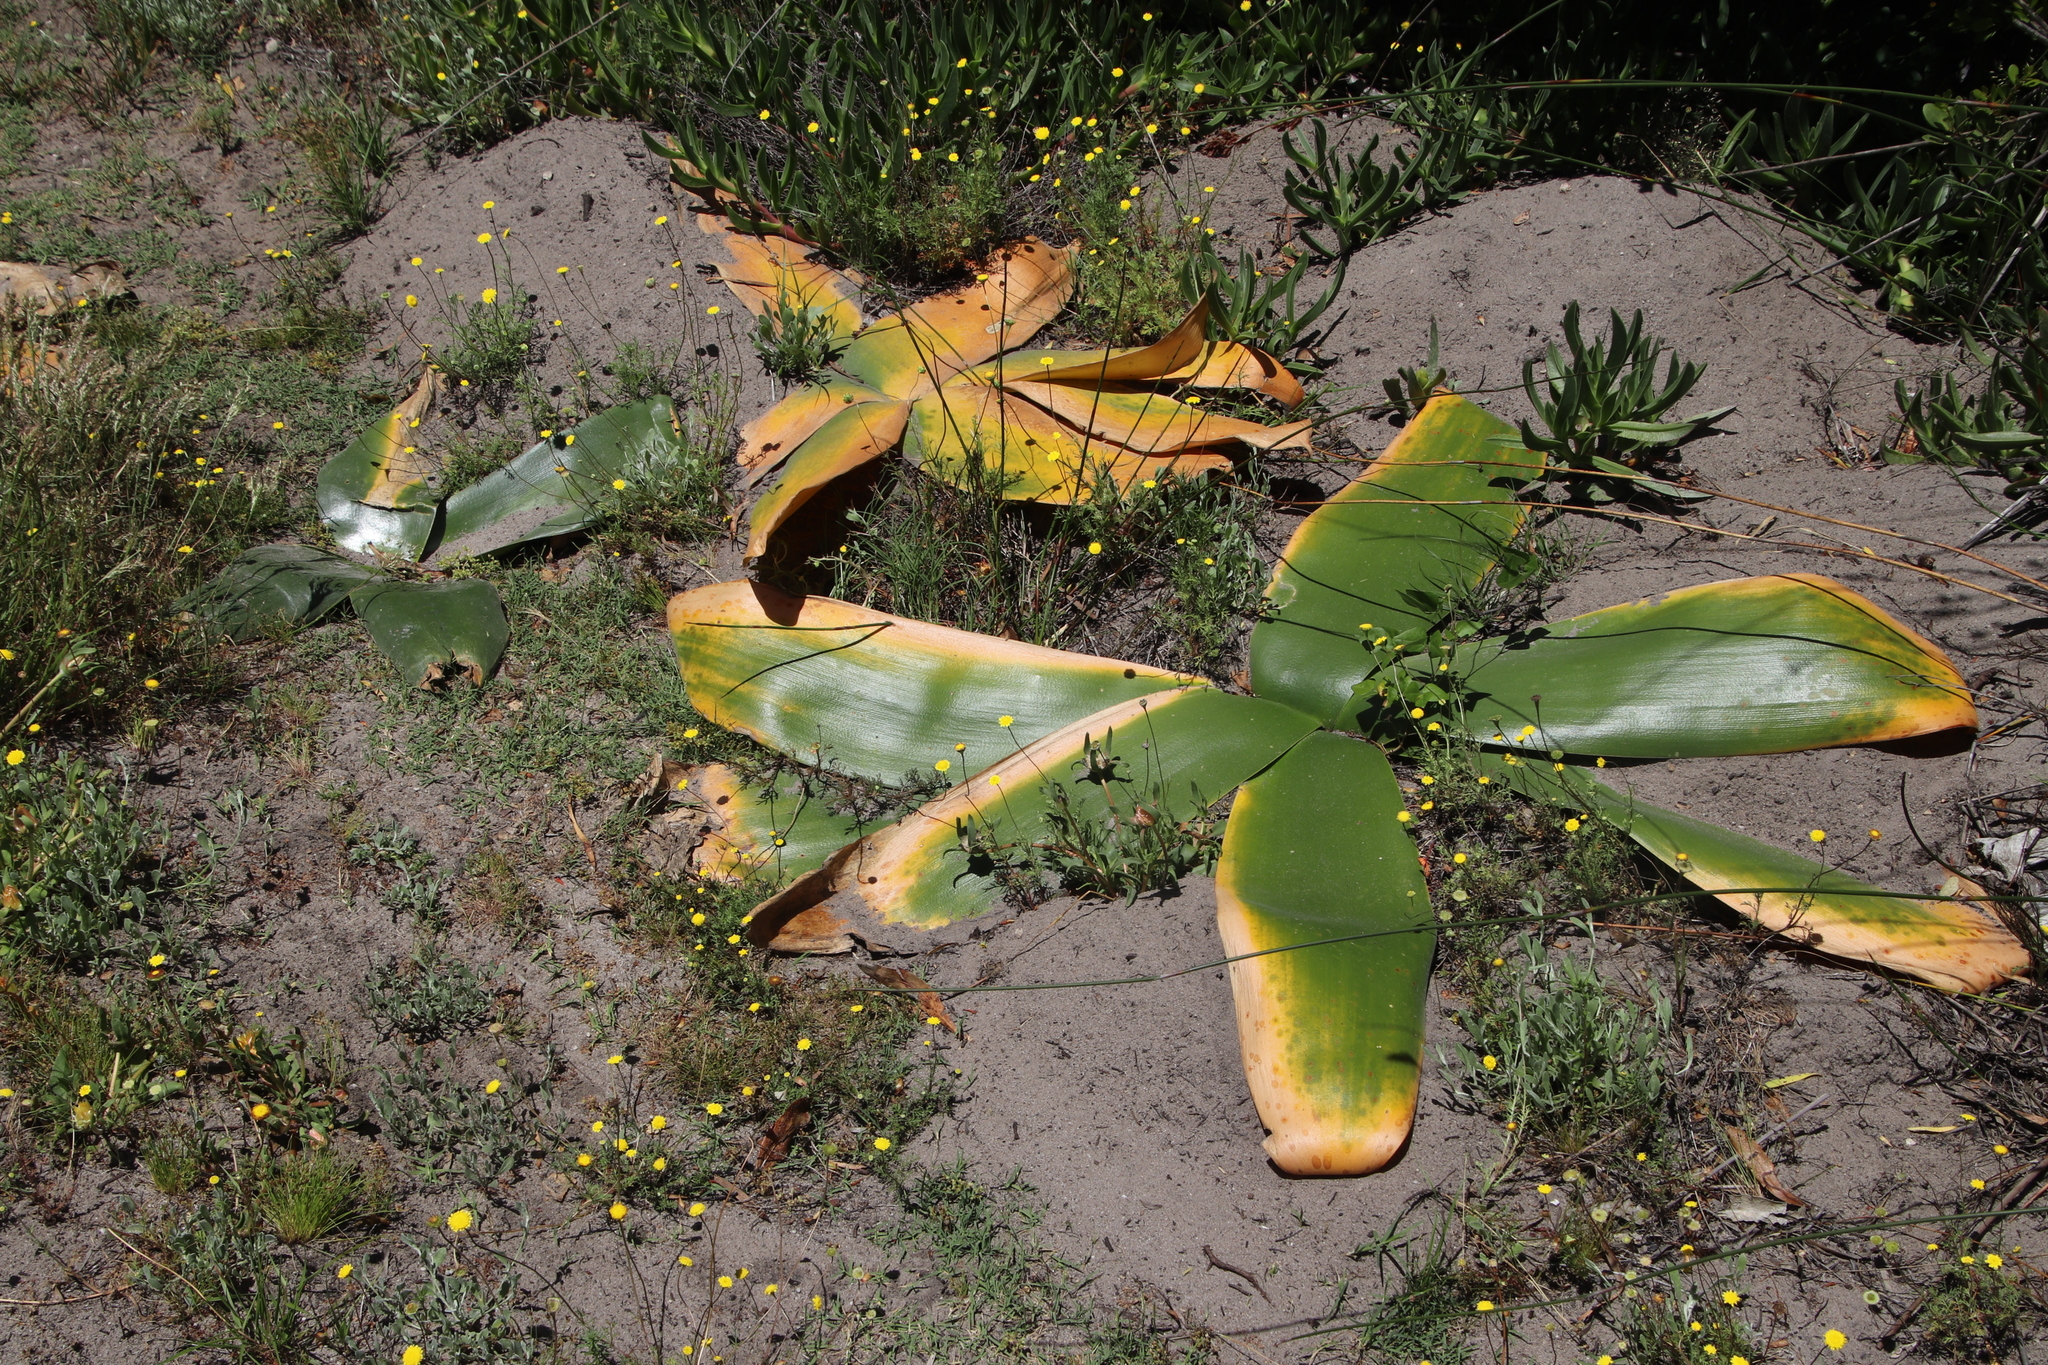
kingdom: Plantae
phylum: Tracheophyta
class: Liliopsida
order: Asparagales
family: Amaryllidaceae
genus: Brunsvigia
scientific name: Brunsvigia orientalis
